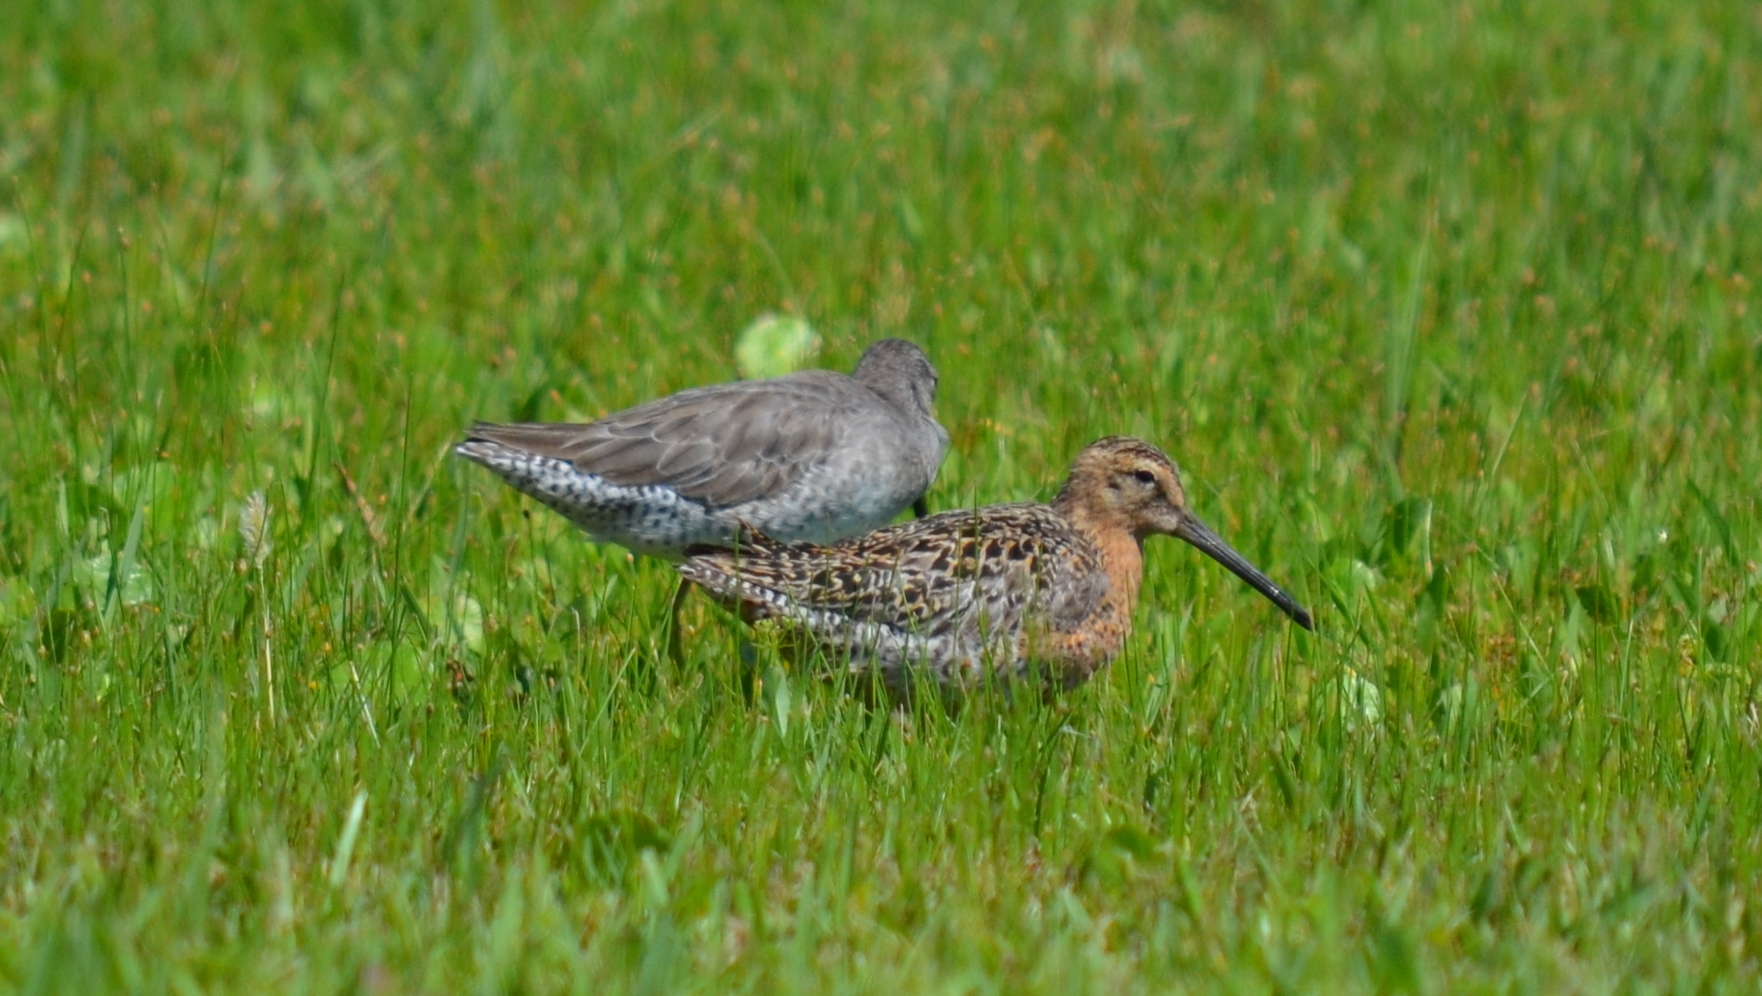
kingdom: Animalia
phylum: Chordata
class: Aves
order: Charadriiformes
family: Scolopacidae
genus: Limnodromus
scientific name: Limnodromus griseus
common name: Short-billed dowitcher
